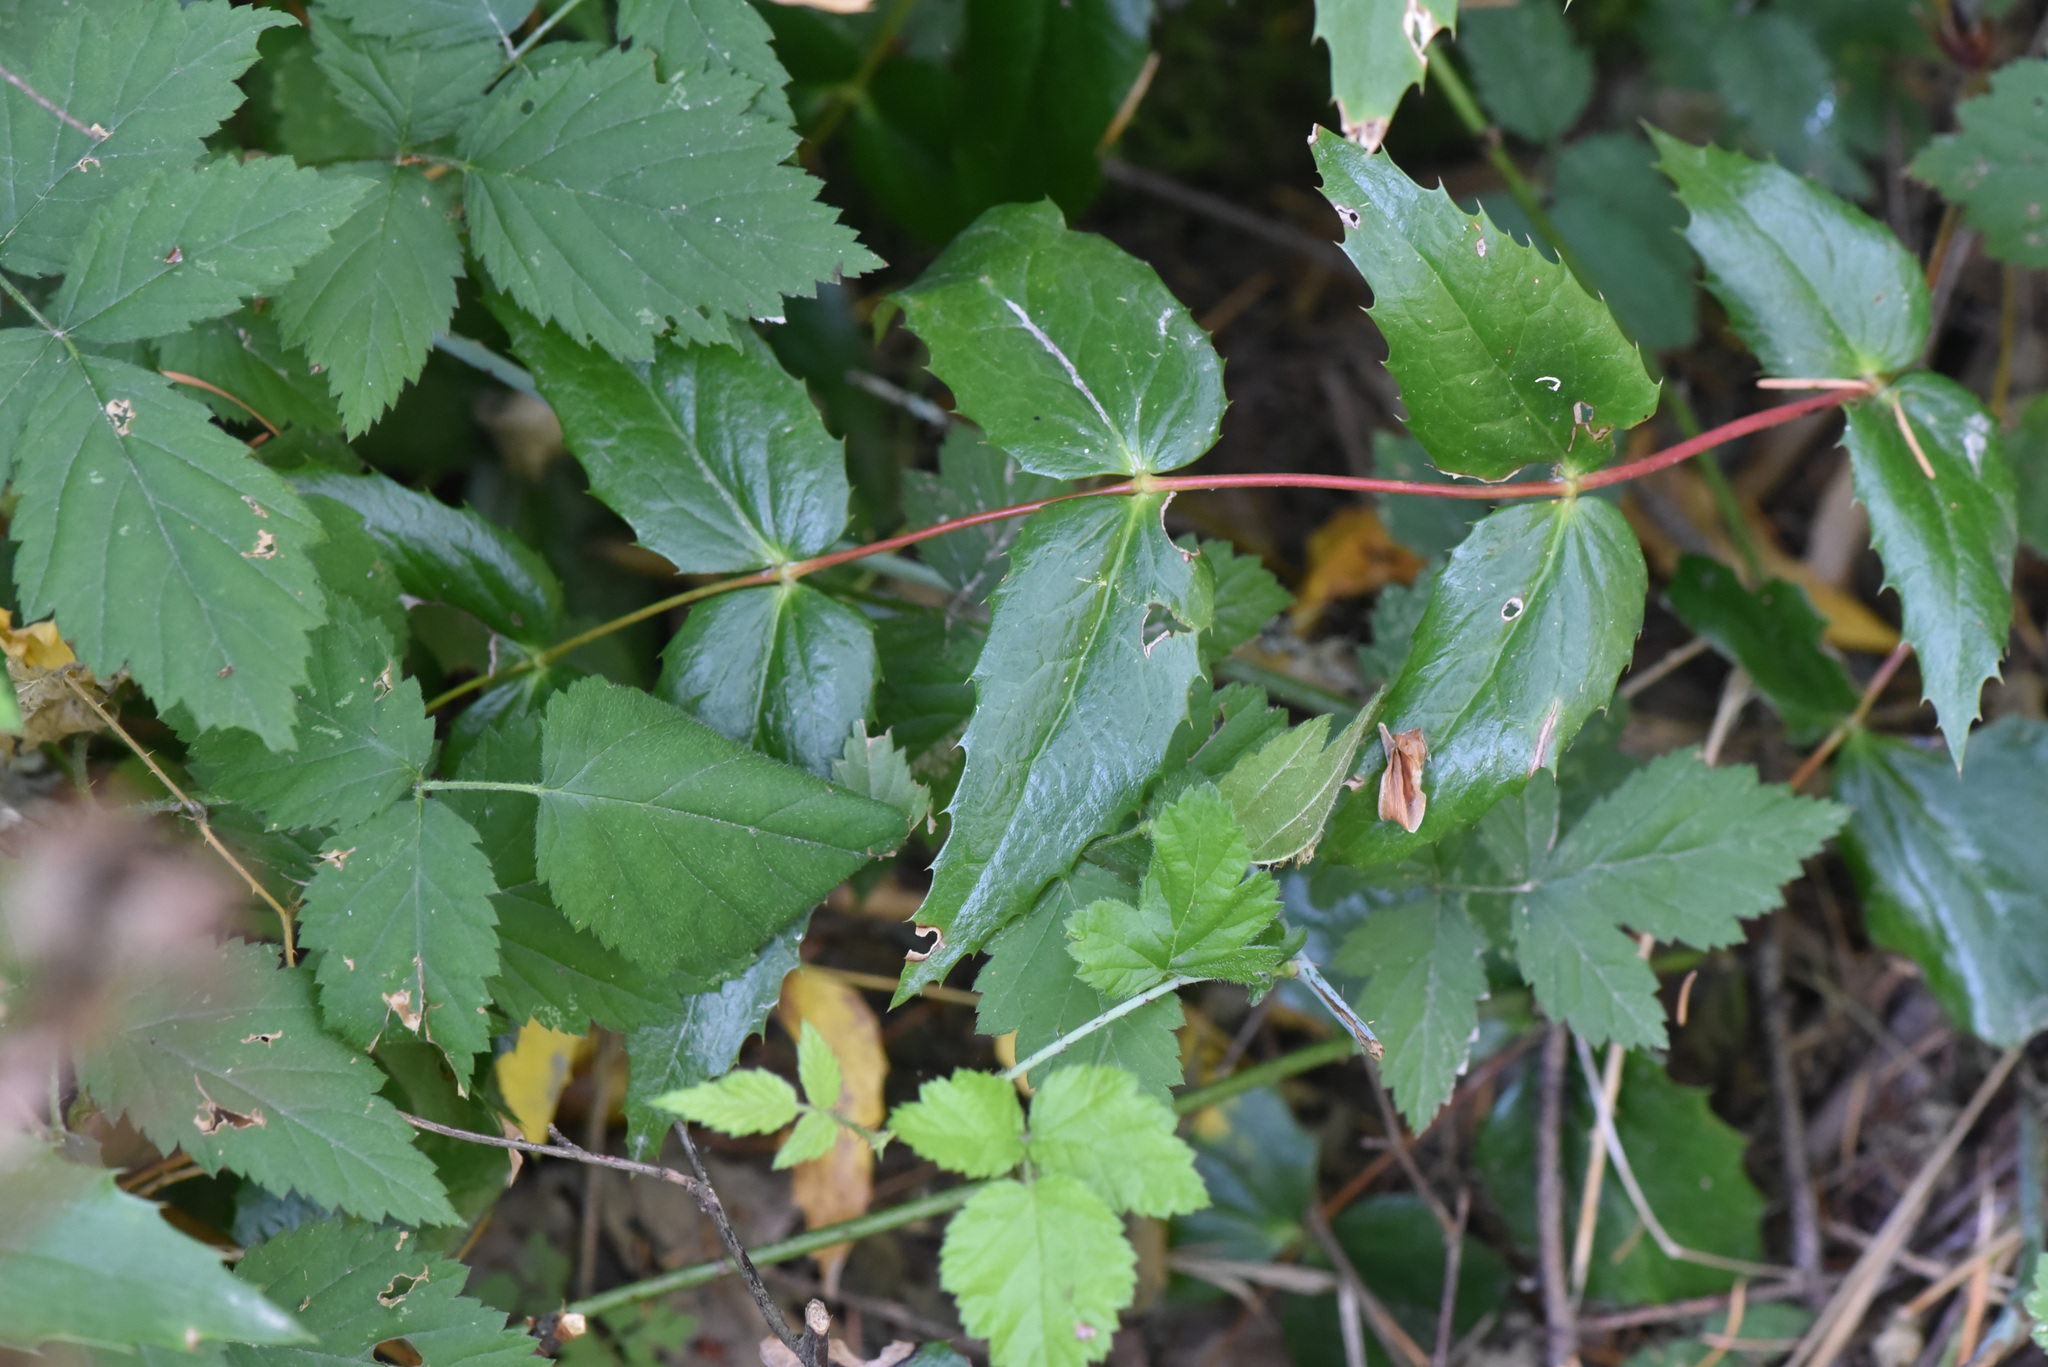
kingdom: Plantae
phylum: Tracheophyta
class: Magnoliopsida
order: Ranunculales
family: Berberidaceae
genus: Mahonia
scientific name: Mahonia nervosa
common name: Cascade oregon-grape
